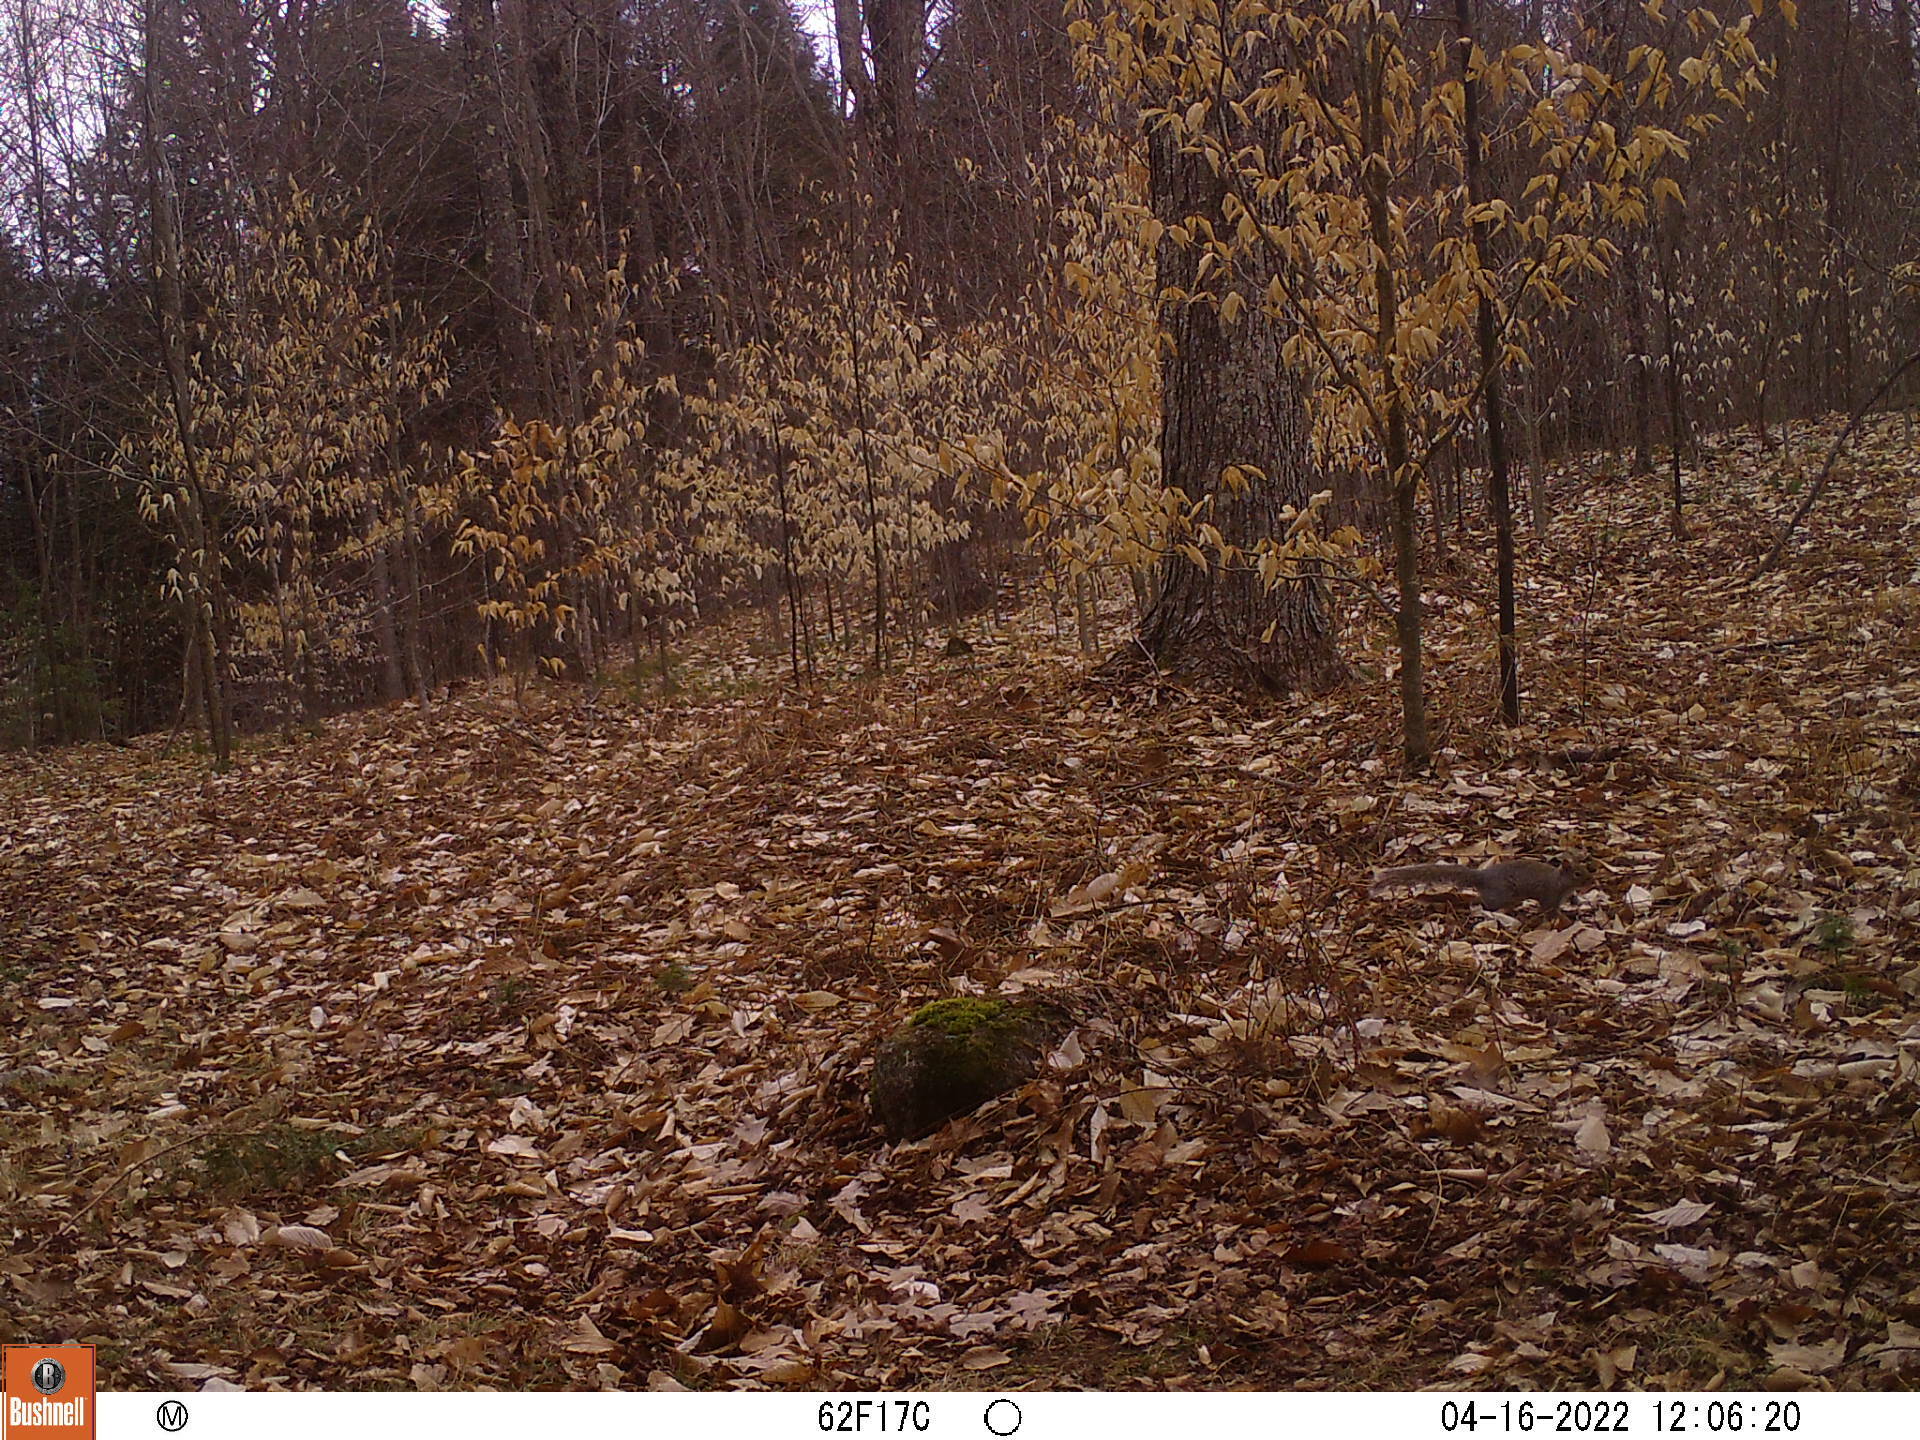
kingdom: Animalia
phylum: Chordata
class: Mammalia
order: Rodentia
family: Sciuridae
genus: Sciurus
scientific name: Sciurus carolinensis
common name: Eastern gray squirrel
